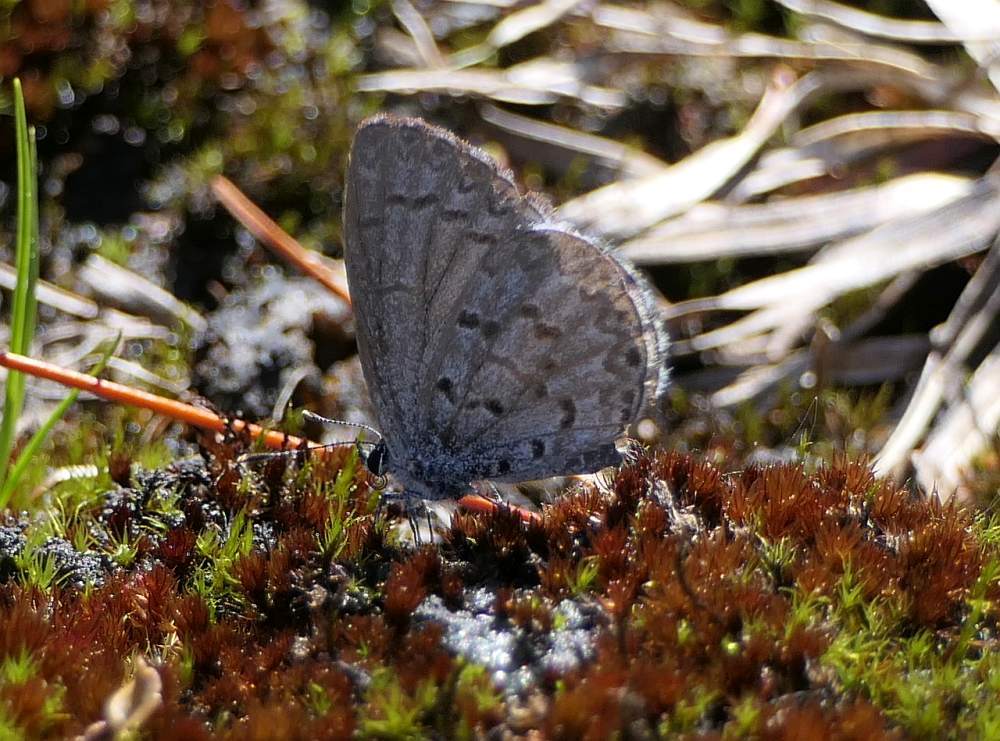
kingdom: Animalia
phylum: Arthropoda
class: Insecta
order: Lepidoptera
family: Lycaenidae
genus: Celastrina
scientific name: Celastrina lucia
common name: Lucia azure
